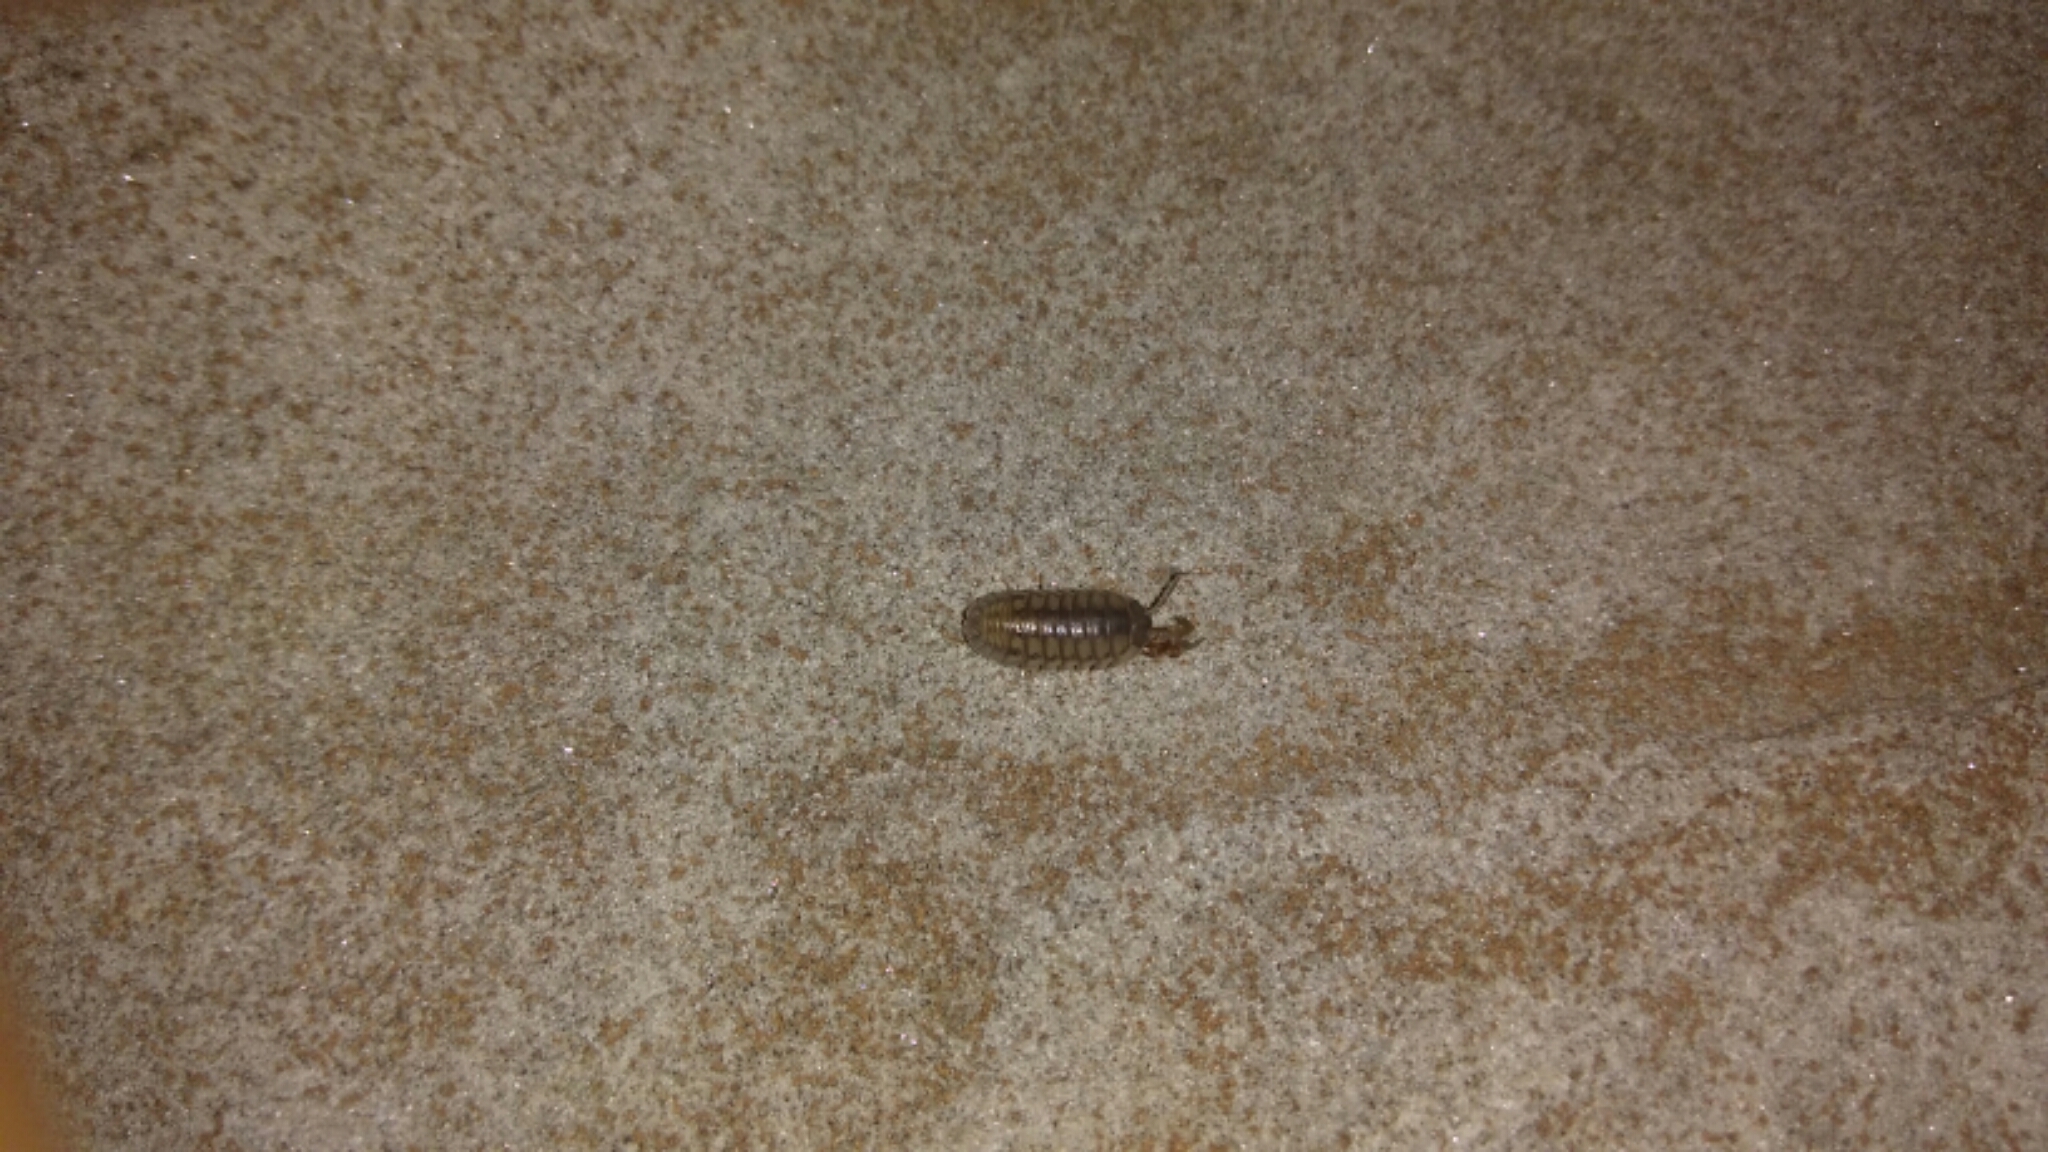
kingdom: Animalia
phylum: Arthropoda
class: Malacostraca
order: Isopoda
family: Armadillidiidae
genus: Armadillidium
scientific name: Armadillidium nasatum
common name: Isopod
